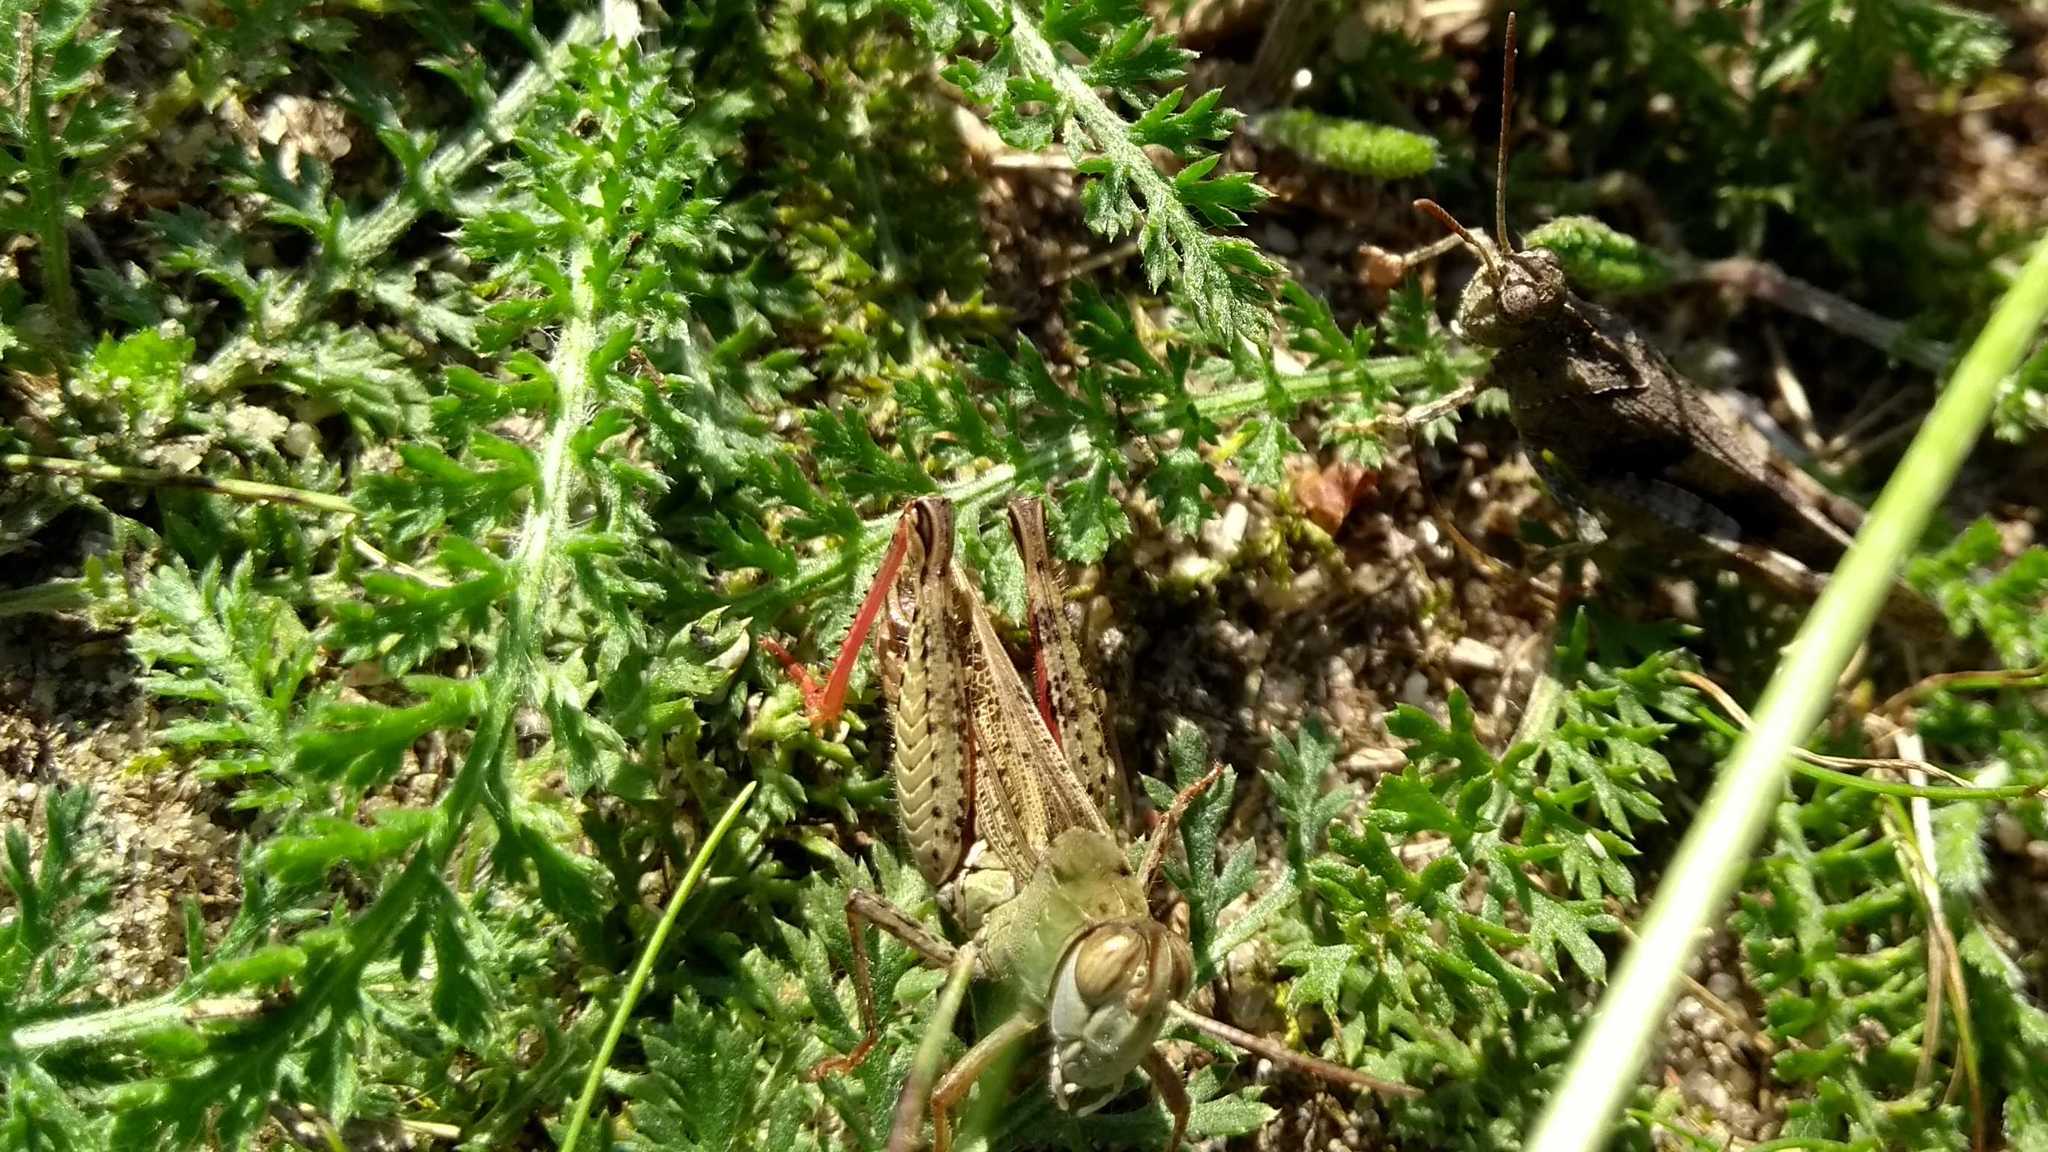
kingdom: Animalia
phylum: Arthropoda
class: Insecta
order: Orthoptera
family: Acrididae
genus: Calliptamus
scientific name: Calliptamus italicus
